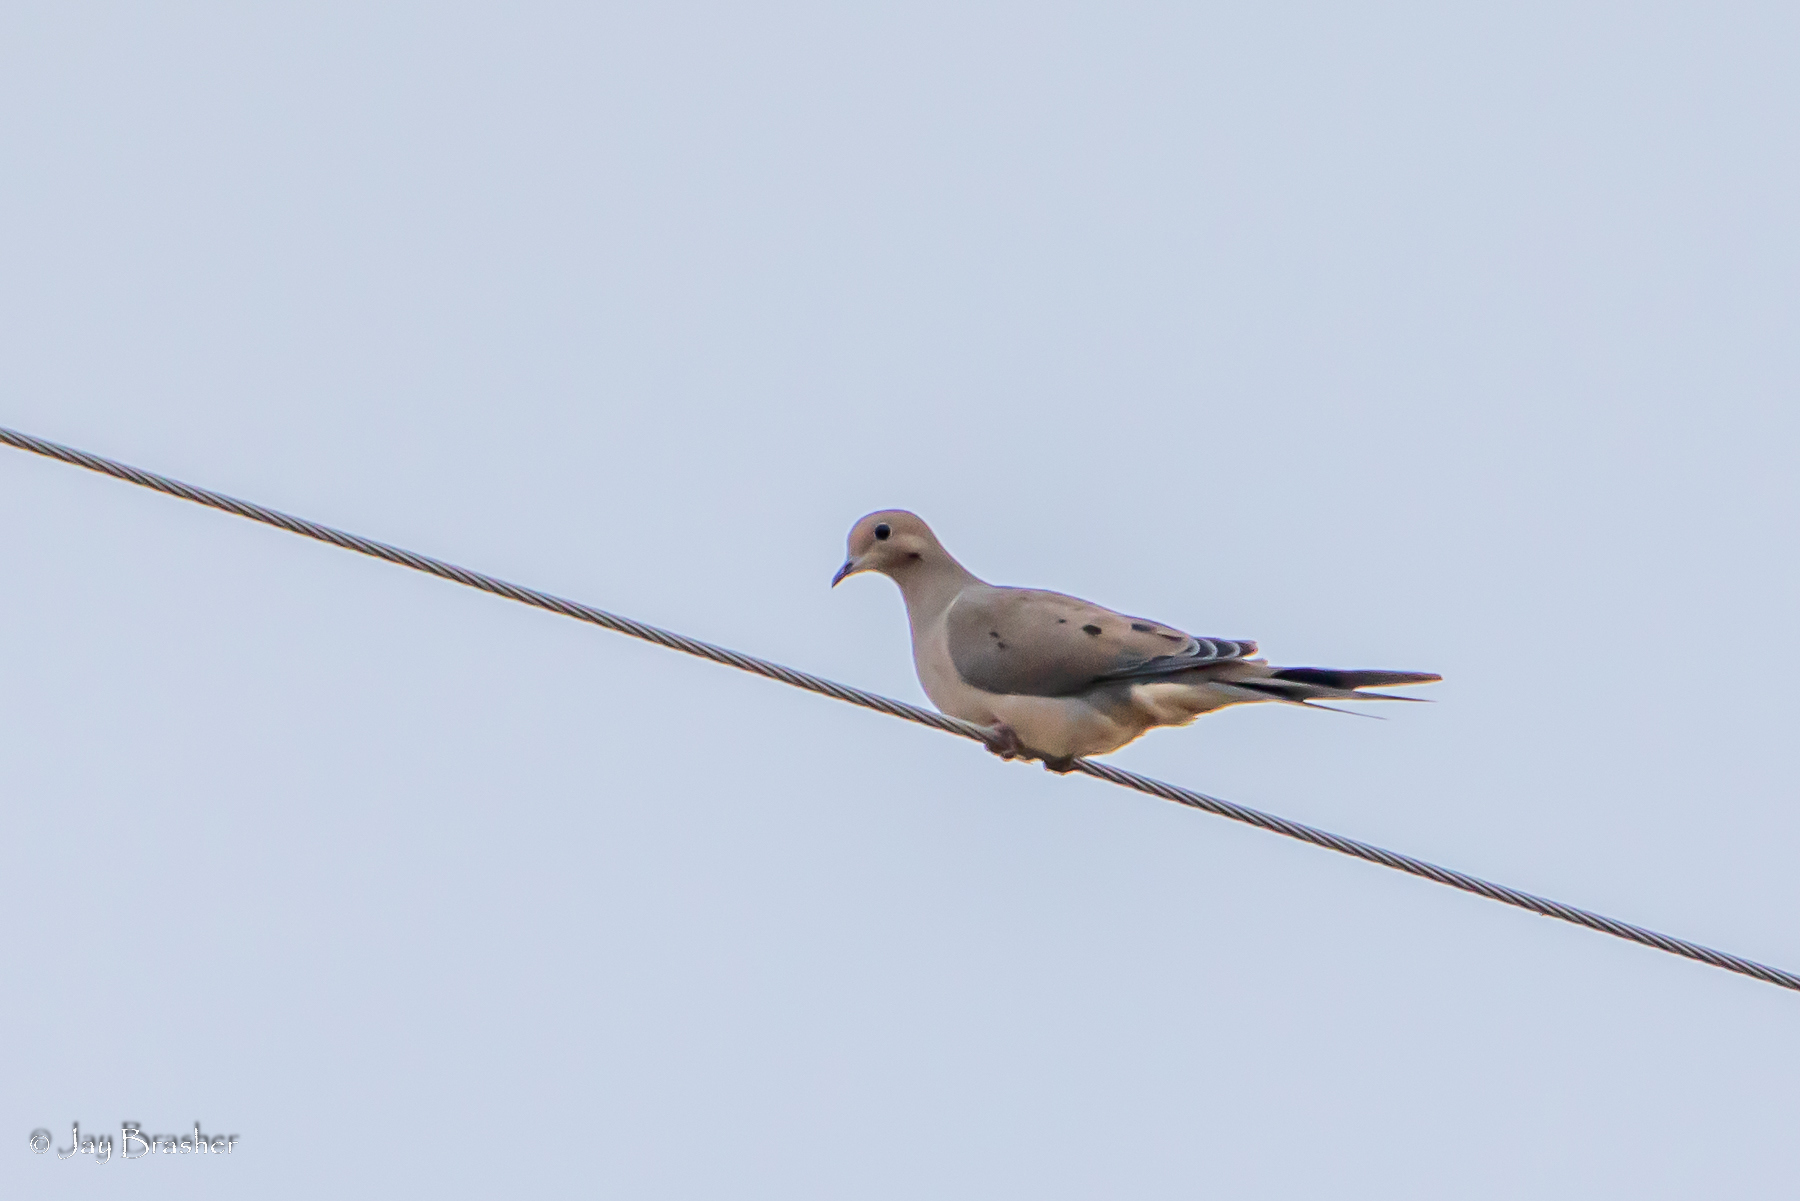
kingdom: Animalia
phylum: Chordata
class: Aves
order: Columbiformes
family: Columbidae
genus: Zenaida
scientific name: Zenaida macroura
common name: Mourning dove
